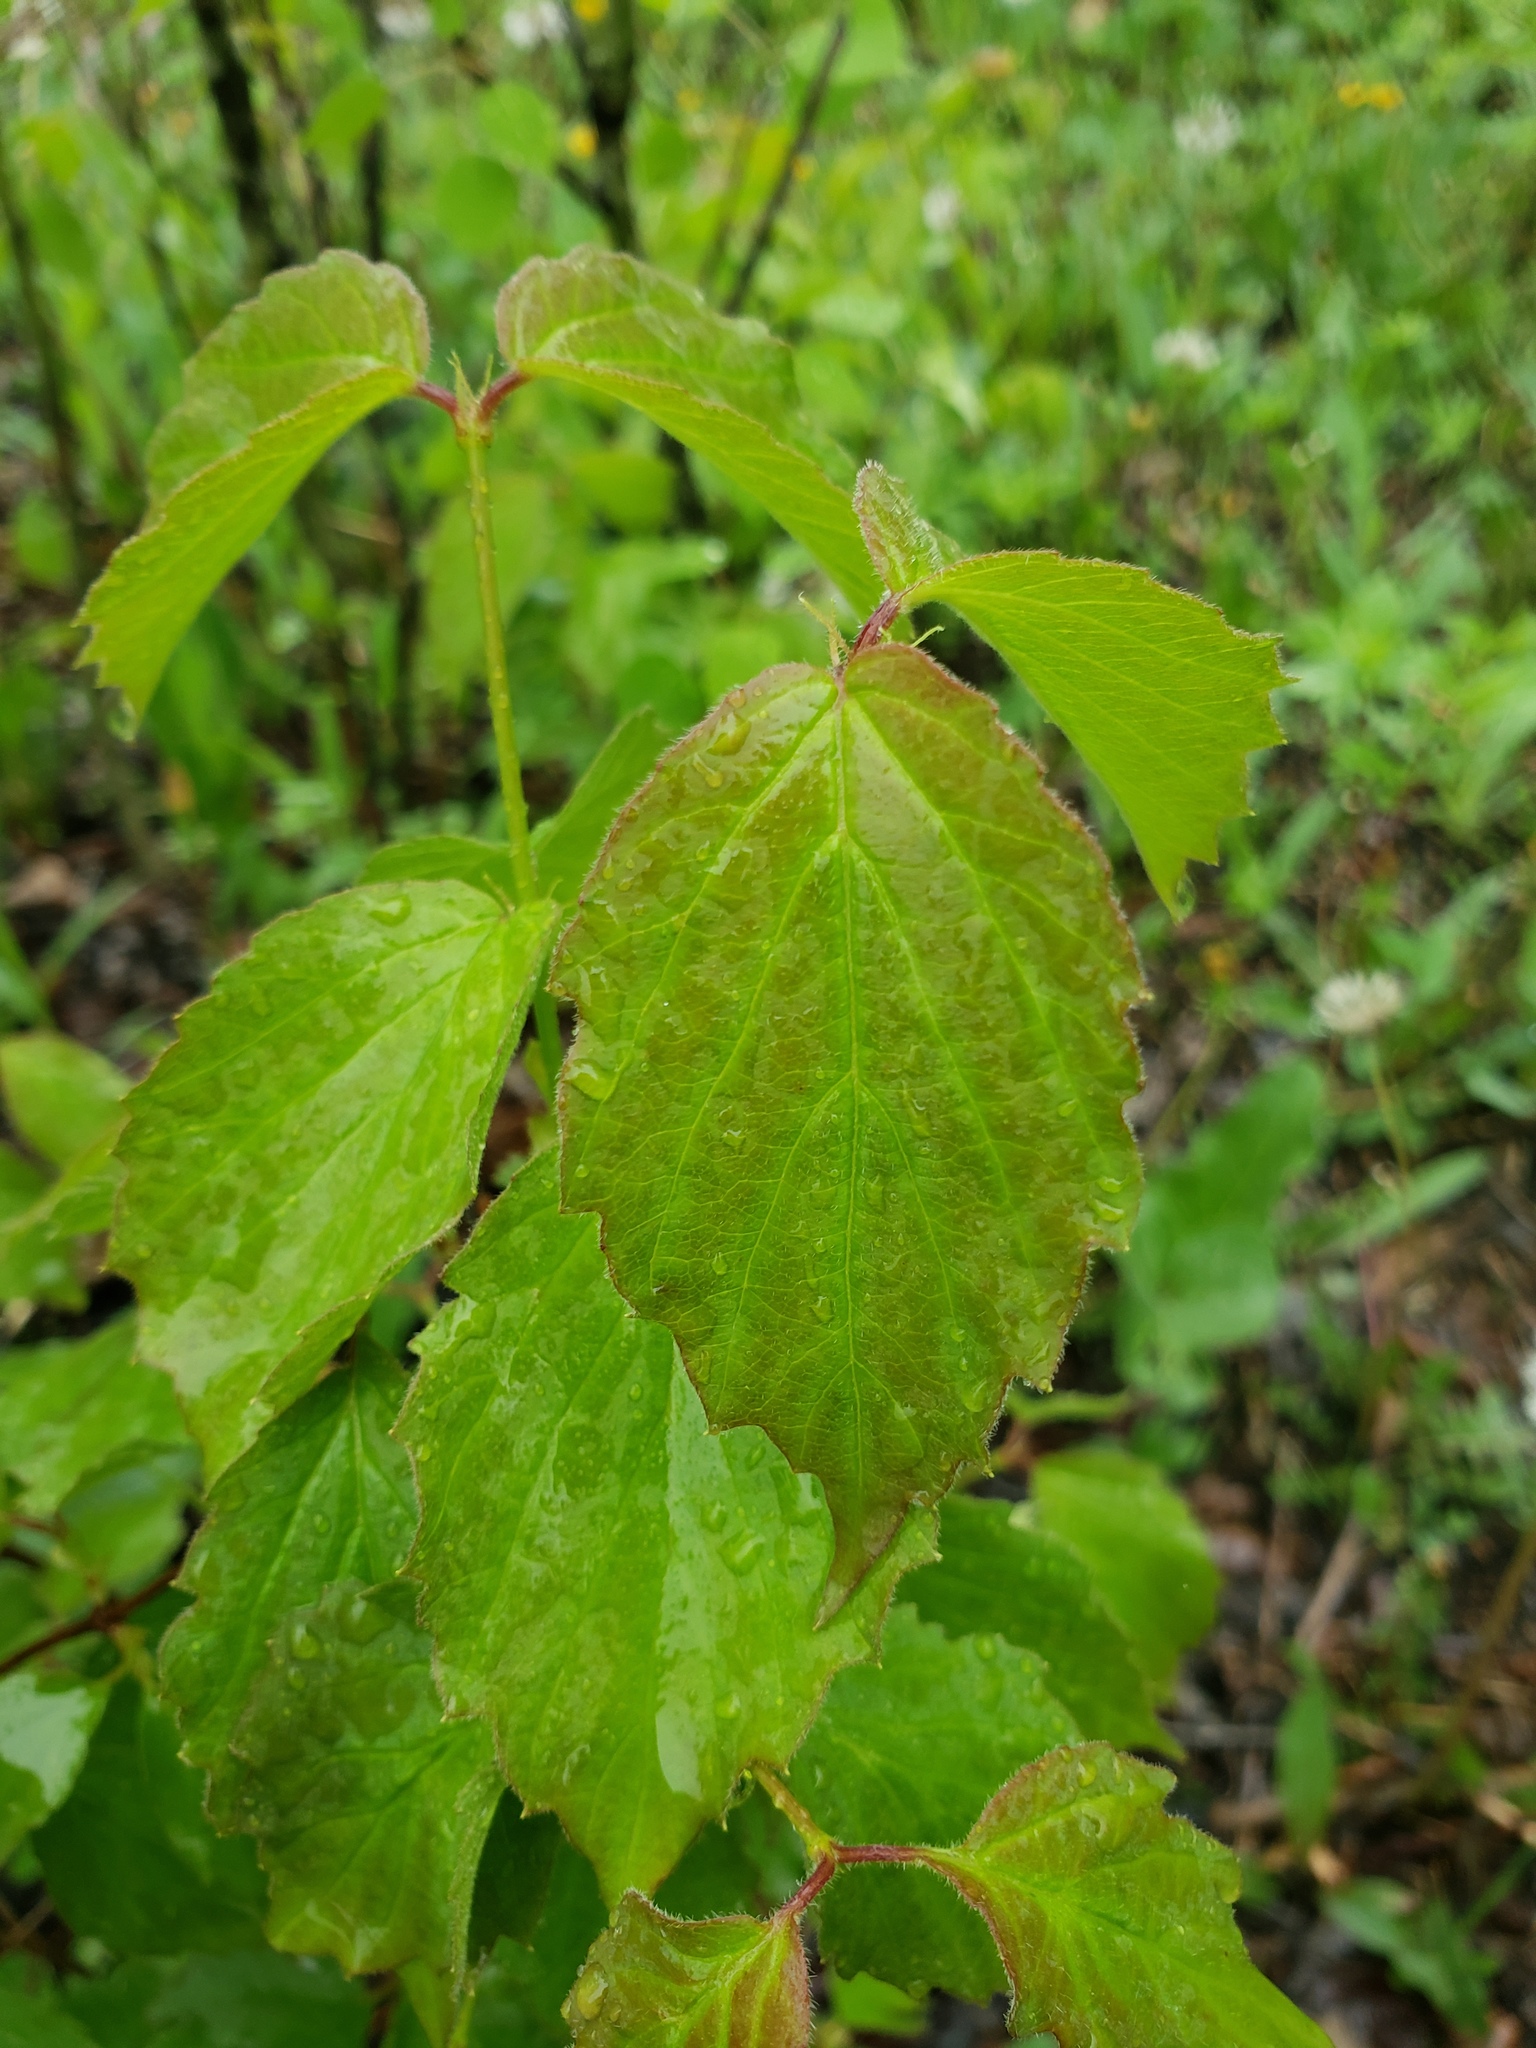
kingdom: Plantae
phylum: Tracheophyta
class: Magnoliopsida
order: Dipsacales
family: Viburnaceae
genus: Viburnum
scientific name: Viburnum rafinesqueanum
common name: Downy arrow-wood
